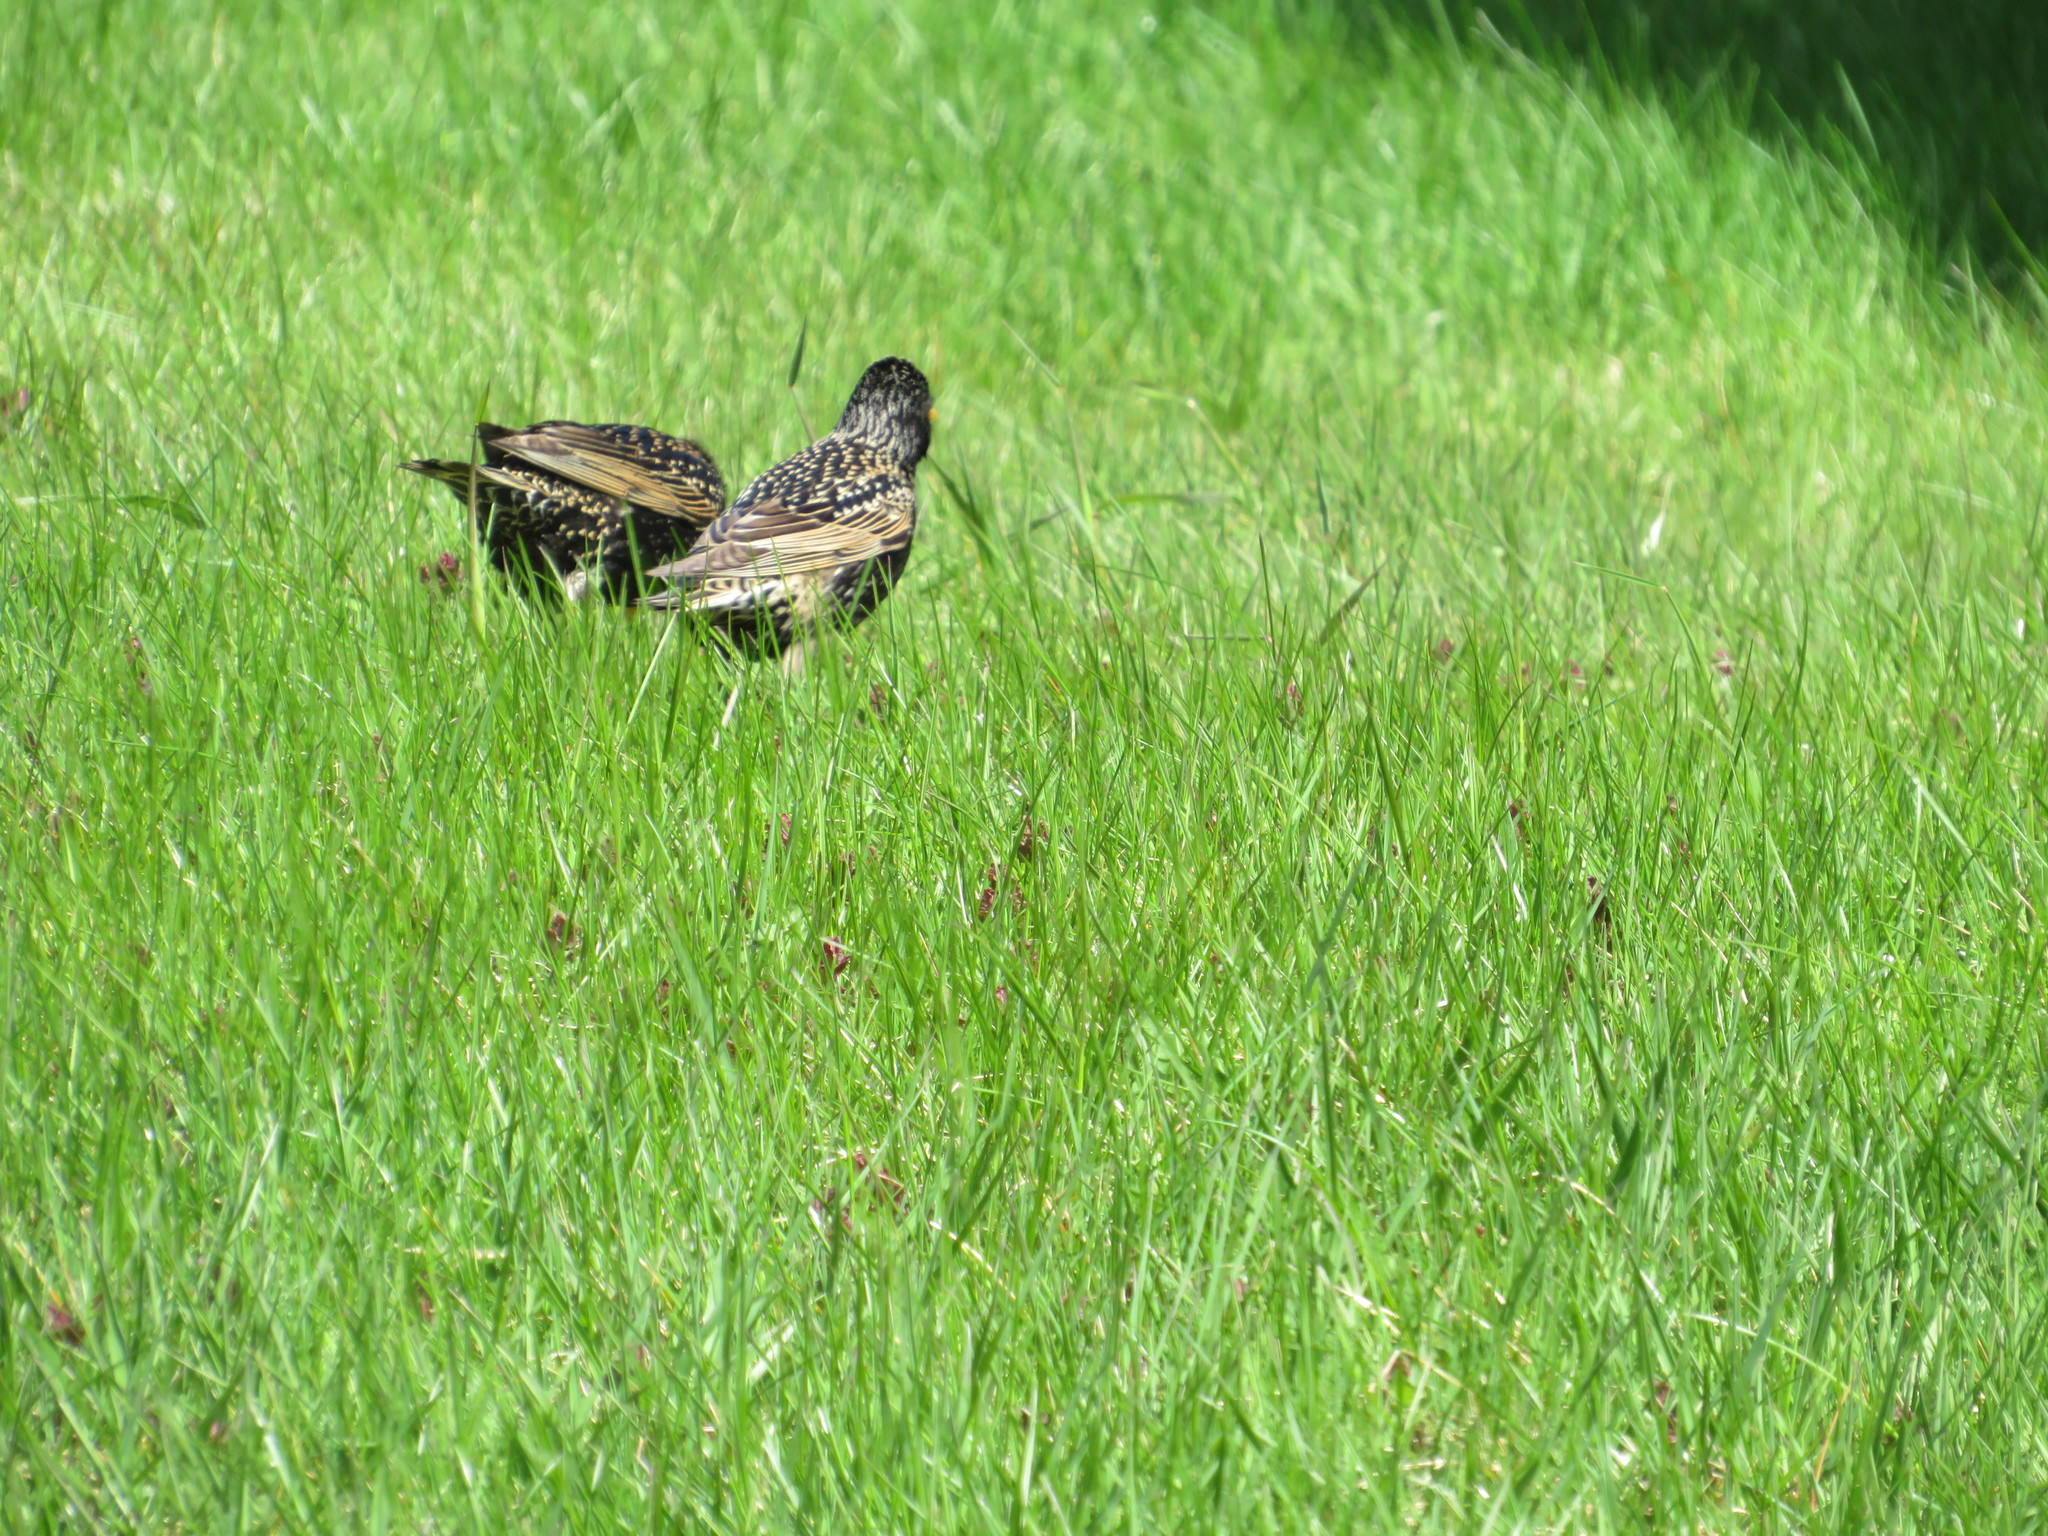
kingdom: Animalia
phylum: Chordata
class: Aves
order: Passeriformes
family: Sturnidae
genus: Sturnus
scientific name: Sturnus vulgaris
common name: Common starling
